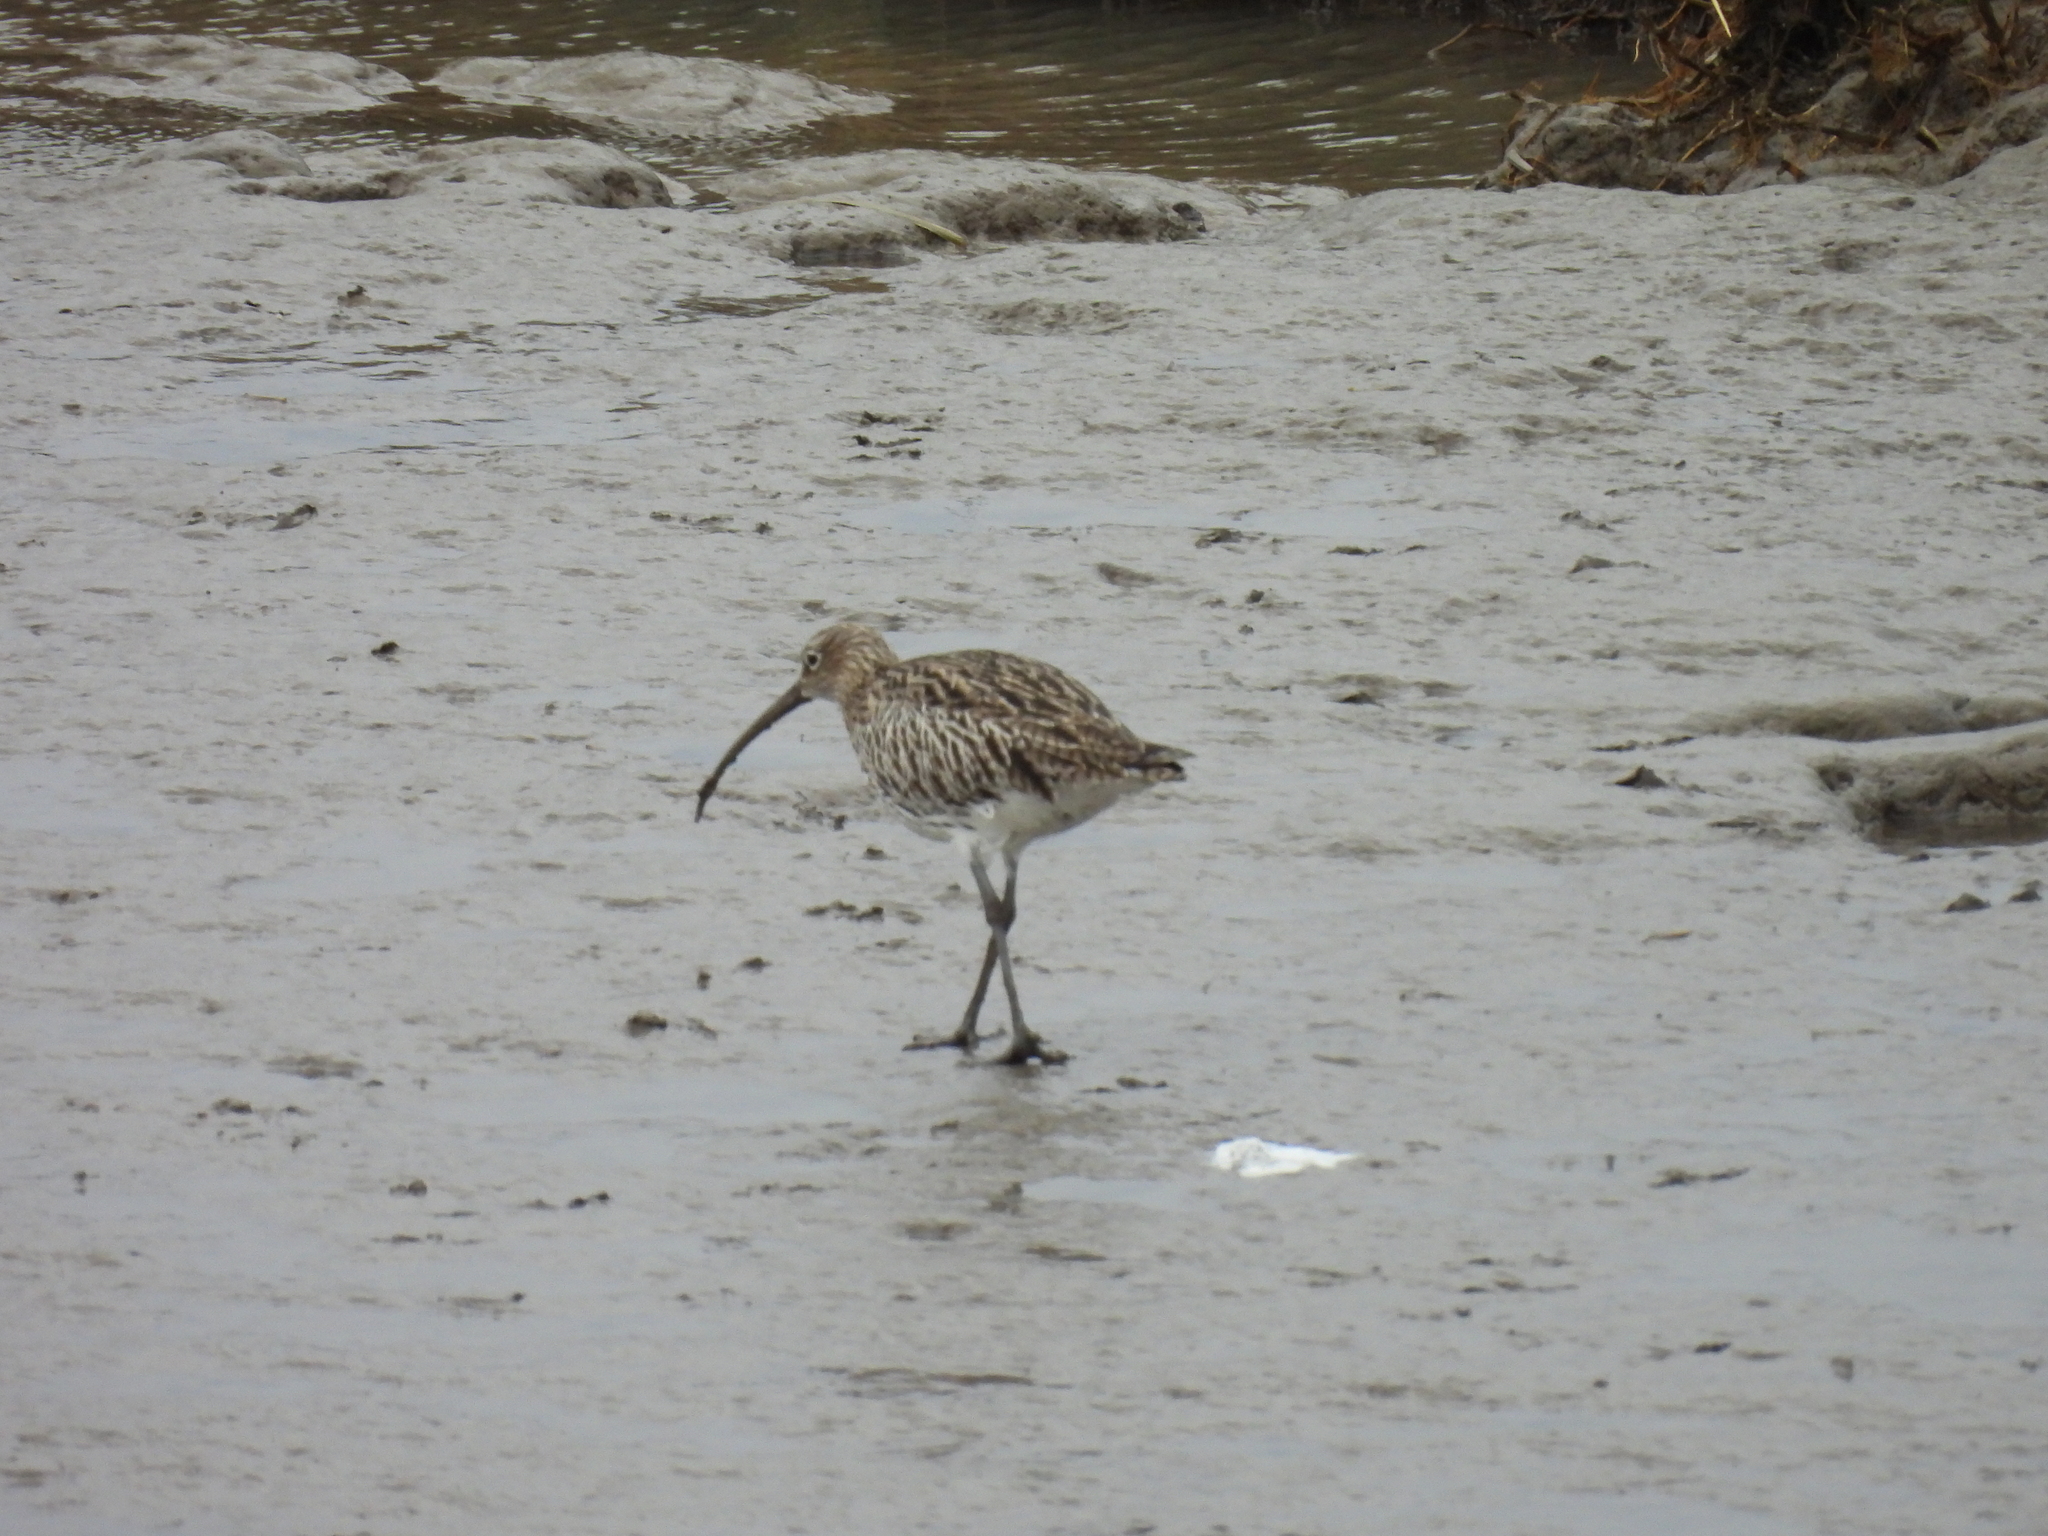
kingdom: Animalia
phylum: Chordata
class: Aves
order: Charadriiformes
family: Scolopacidae
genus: Numenius
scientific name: Numenius arquata
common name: Eurasian curlew
